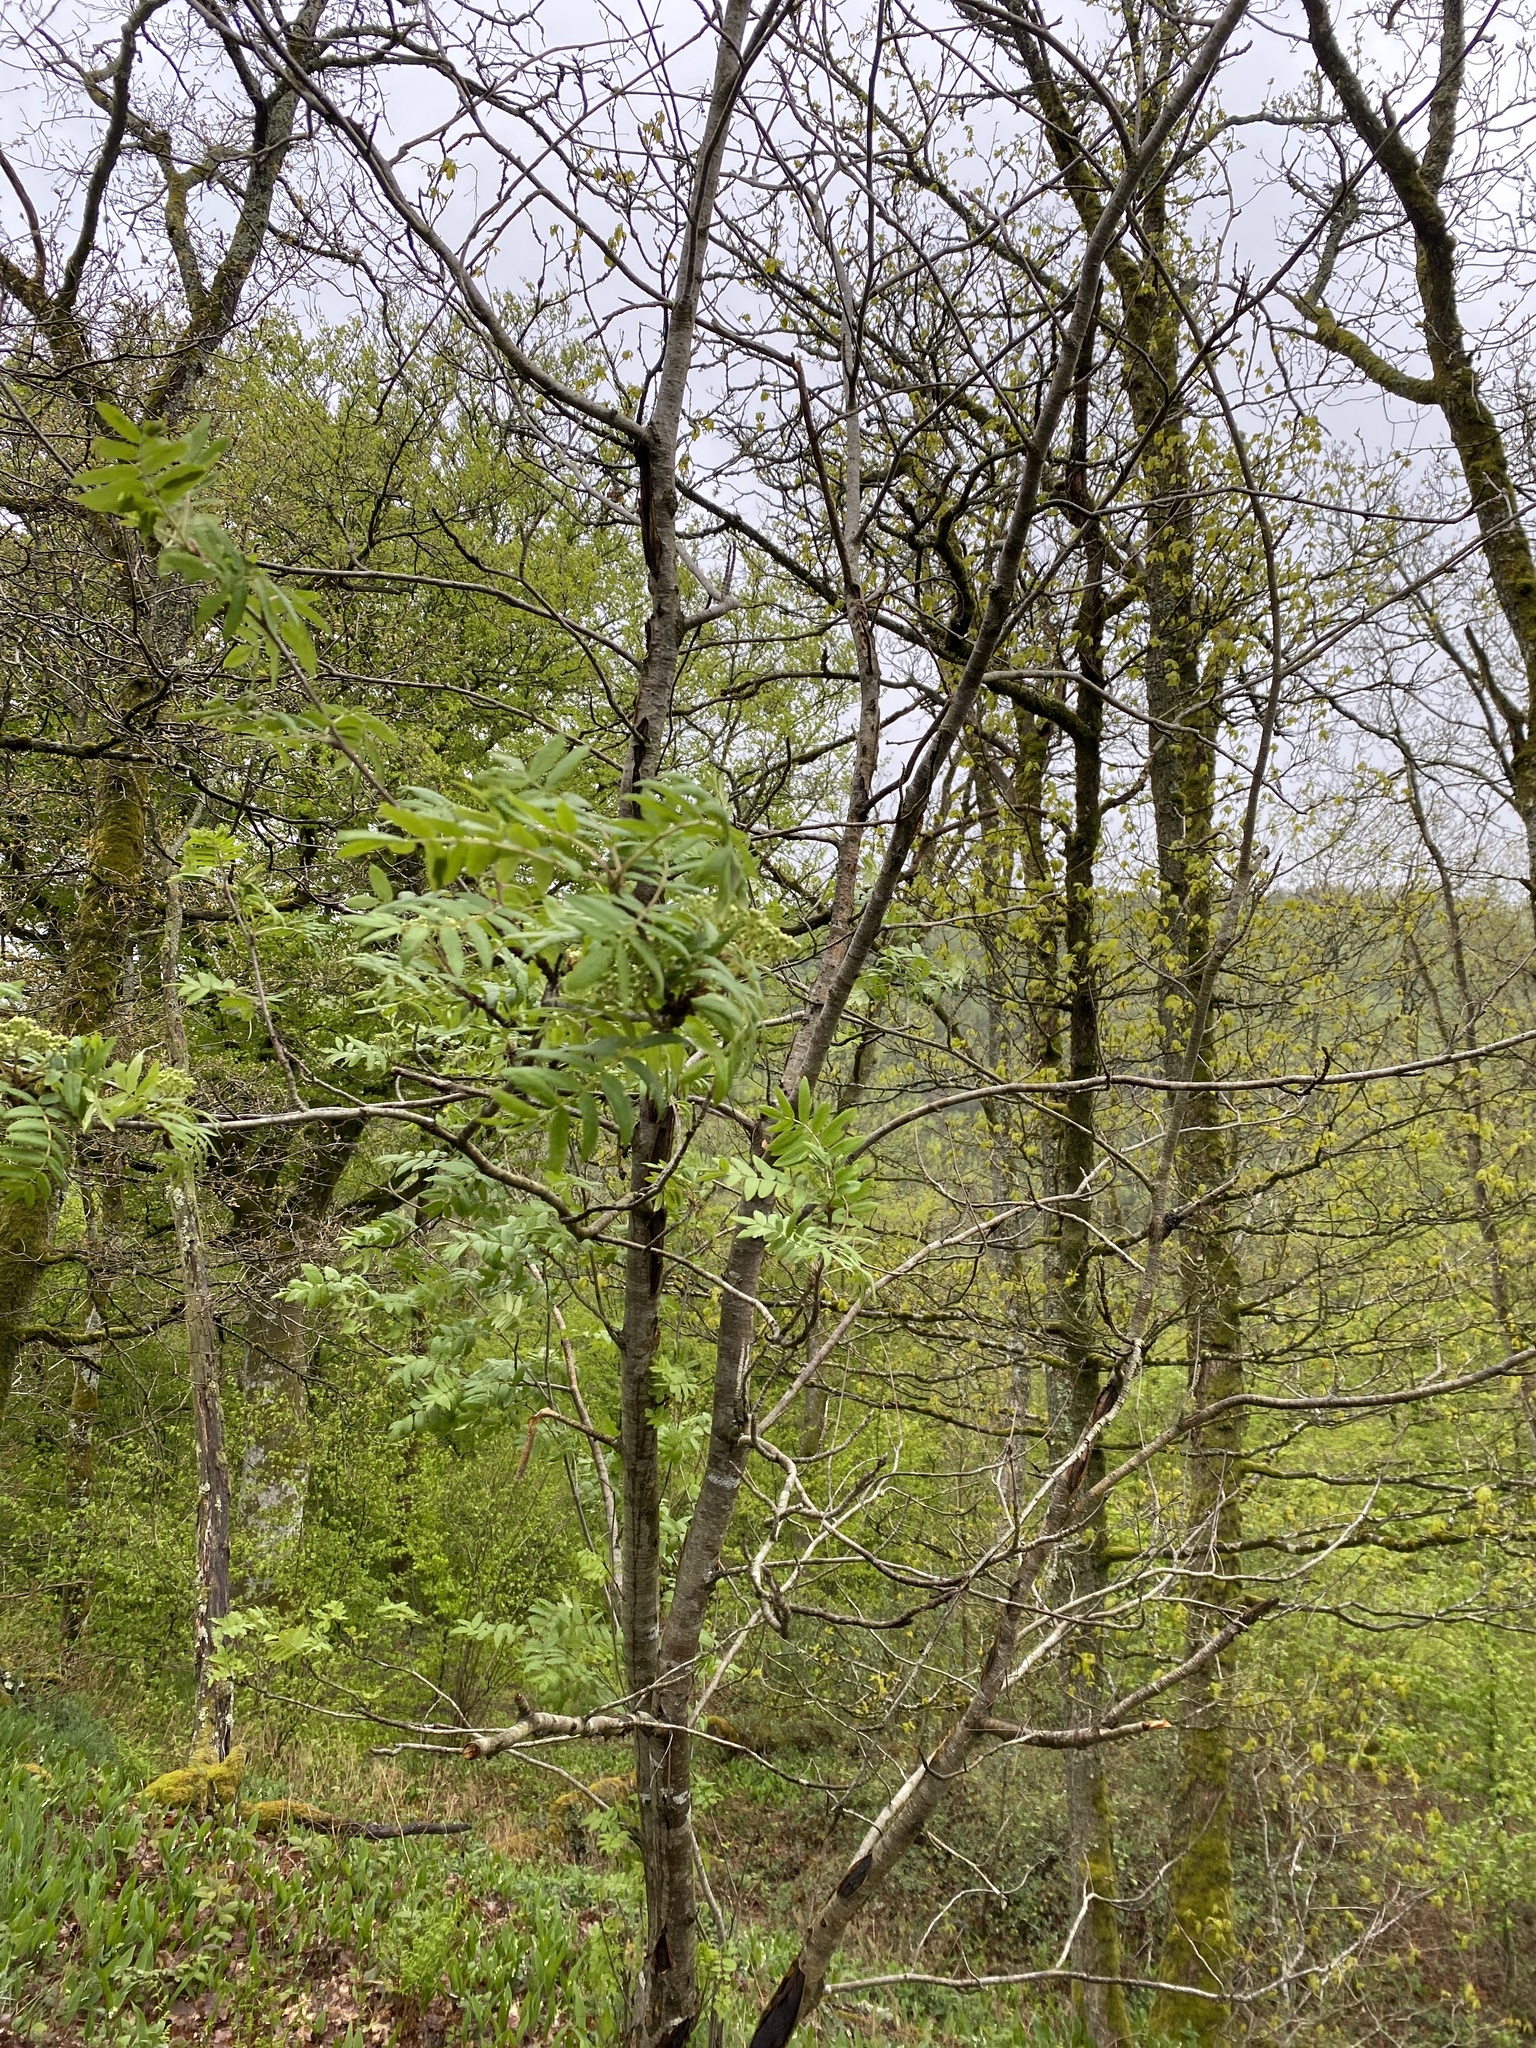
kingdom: Plantae
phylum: Tracheophyta
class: Magnoliopsida
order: Rosales
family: Rosaceae
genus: Sorbus
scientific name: Sorbus aucuparia
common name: Rowan
